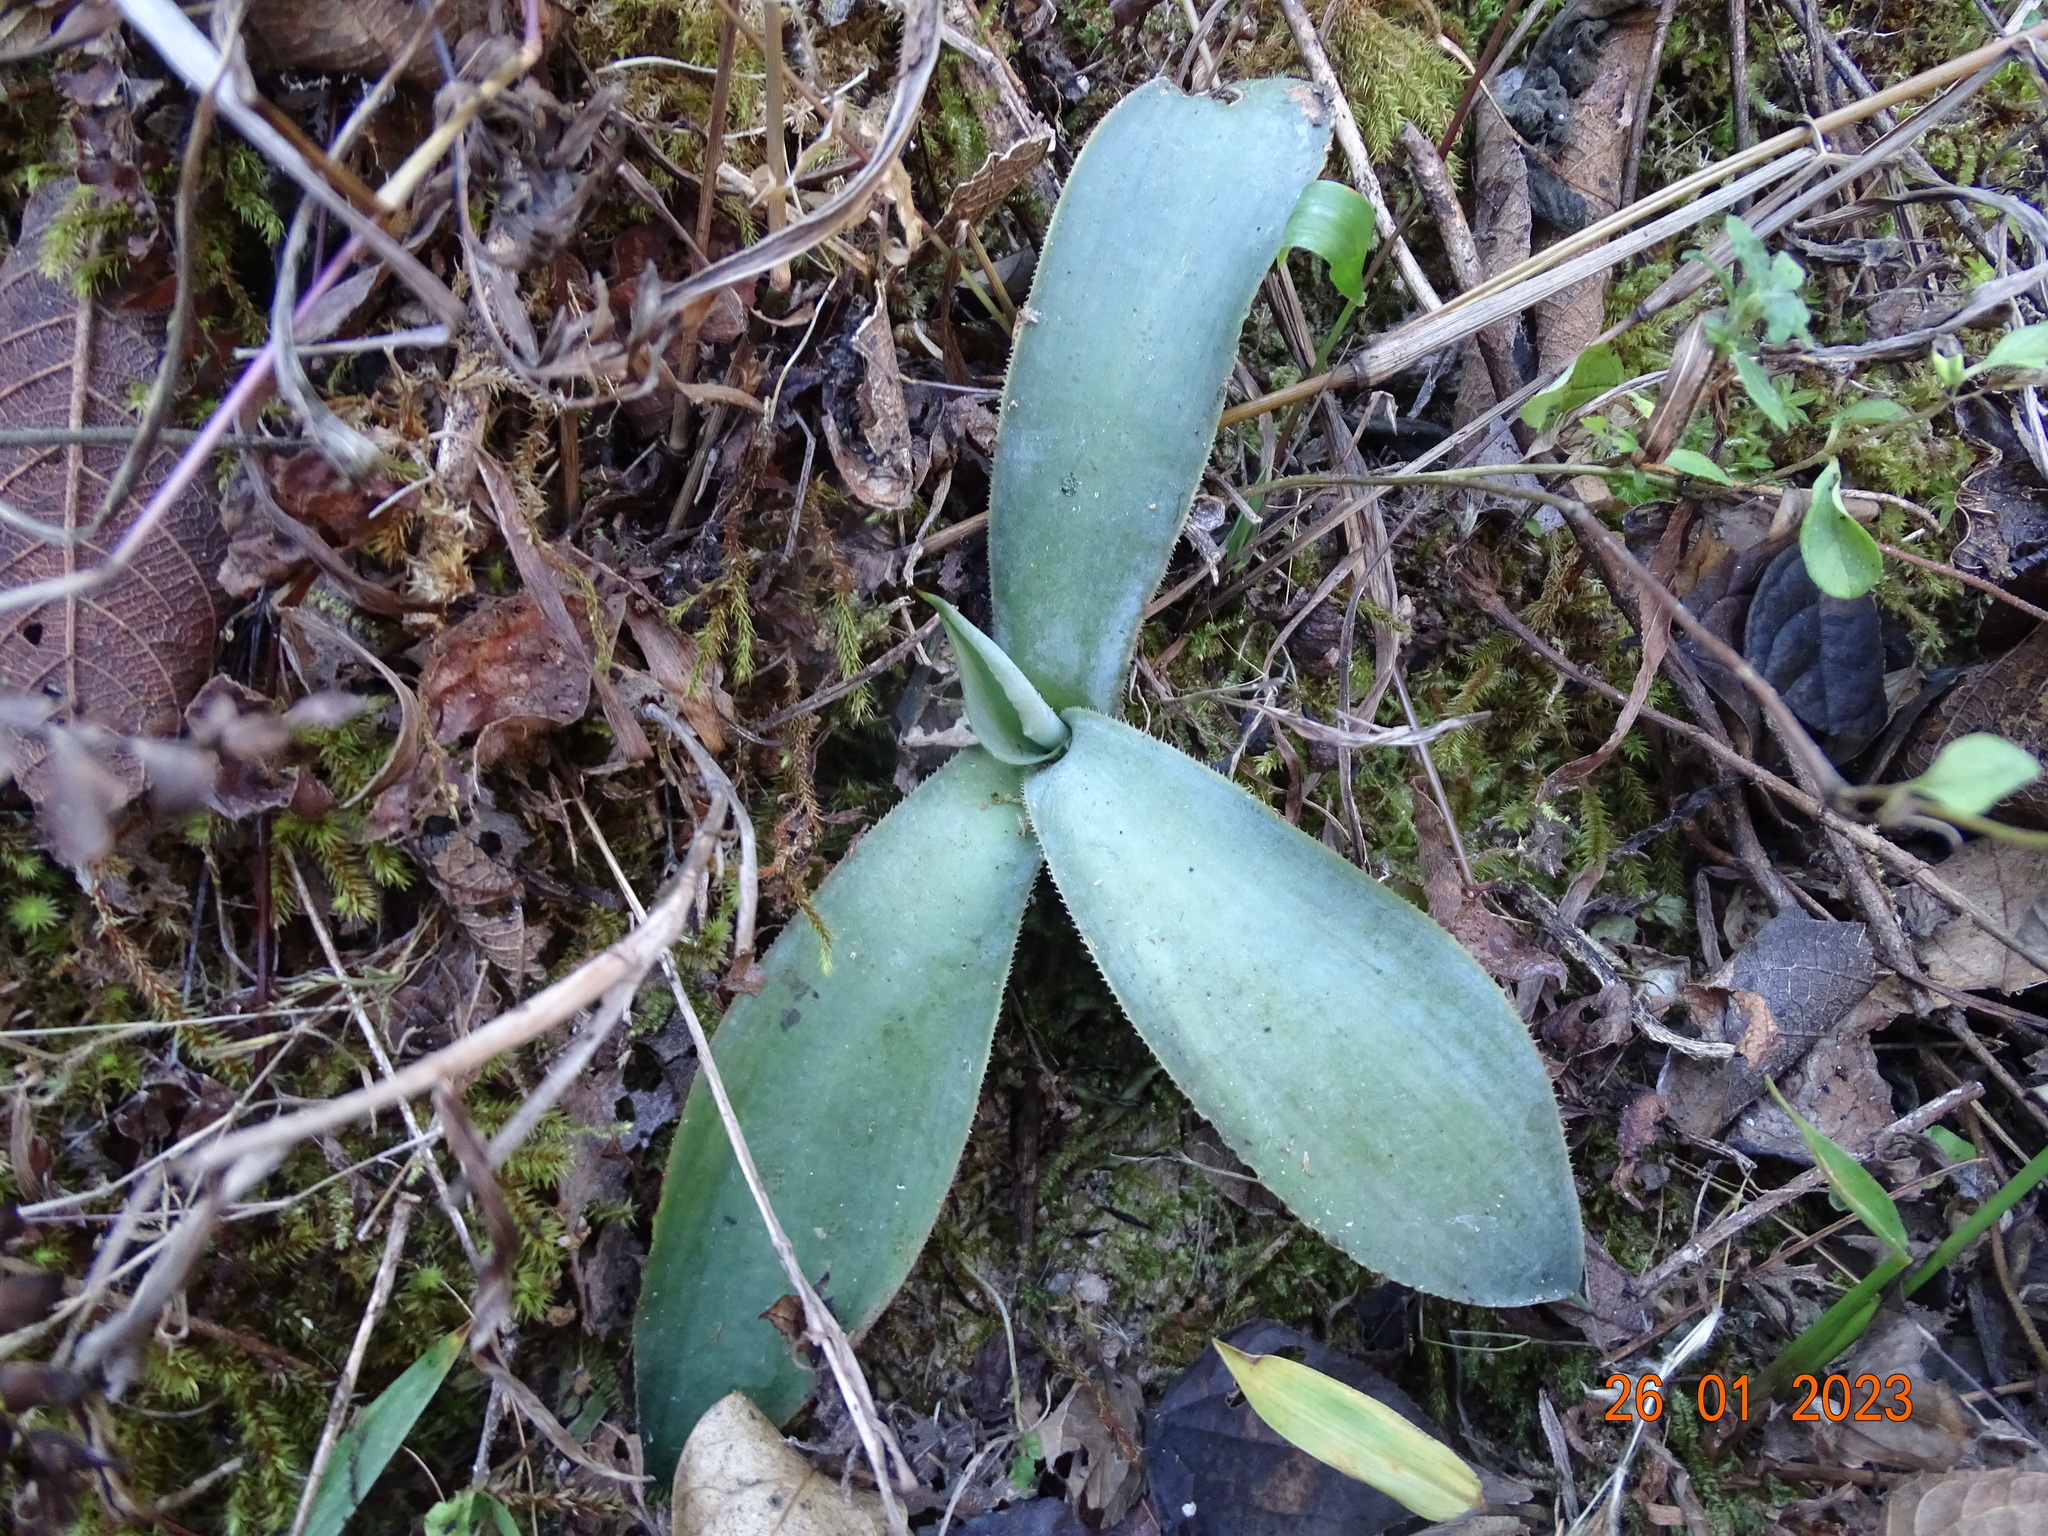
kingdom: Plantae
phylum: Tracheophyta
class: Liliopsida
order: Asparagales
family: Asparagaceae
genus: Agave
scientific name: Agave maximiliana
